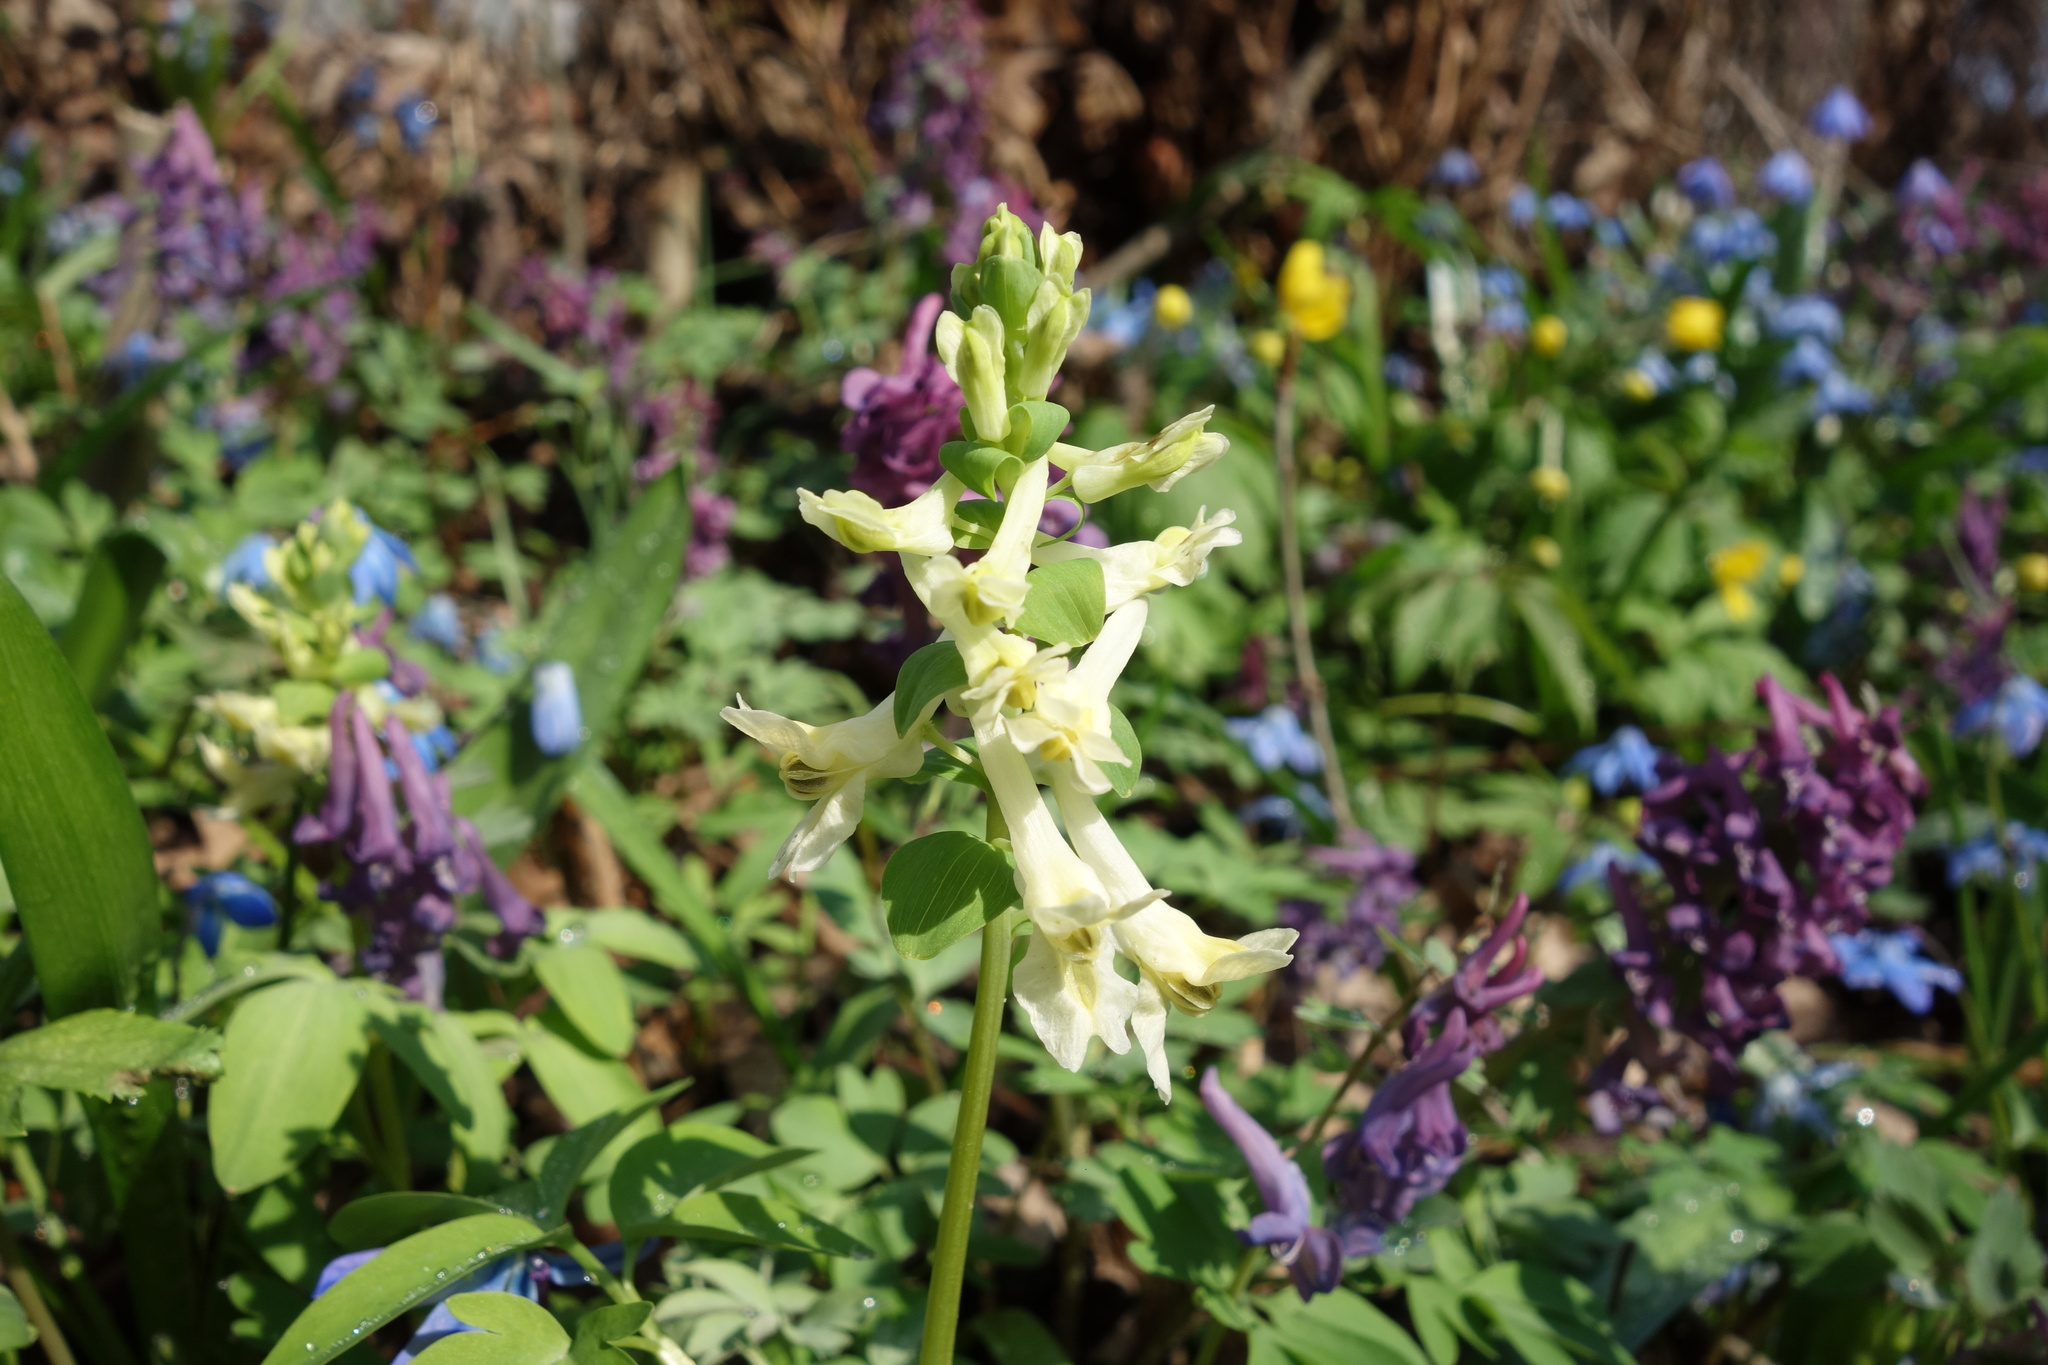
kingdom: Plantae
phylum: Tracheophyta
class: Magnoliopsida
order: Ranunculales
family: Papaveraceae
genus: Corydalis
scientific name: Corydalis cava
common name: Hollowroot
